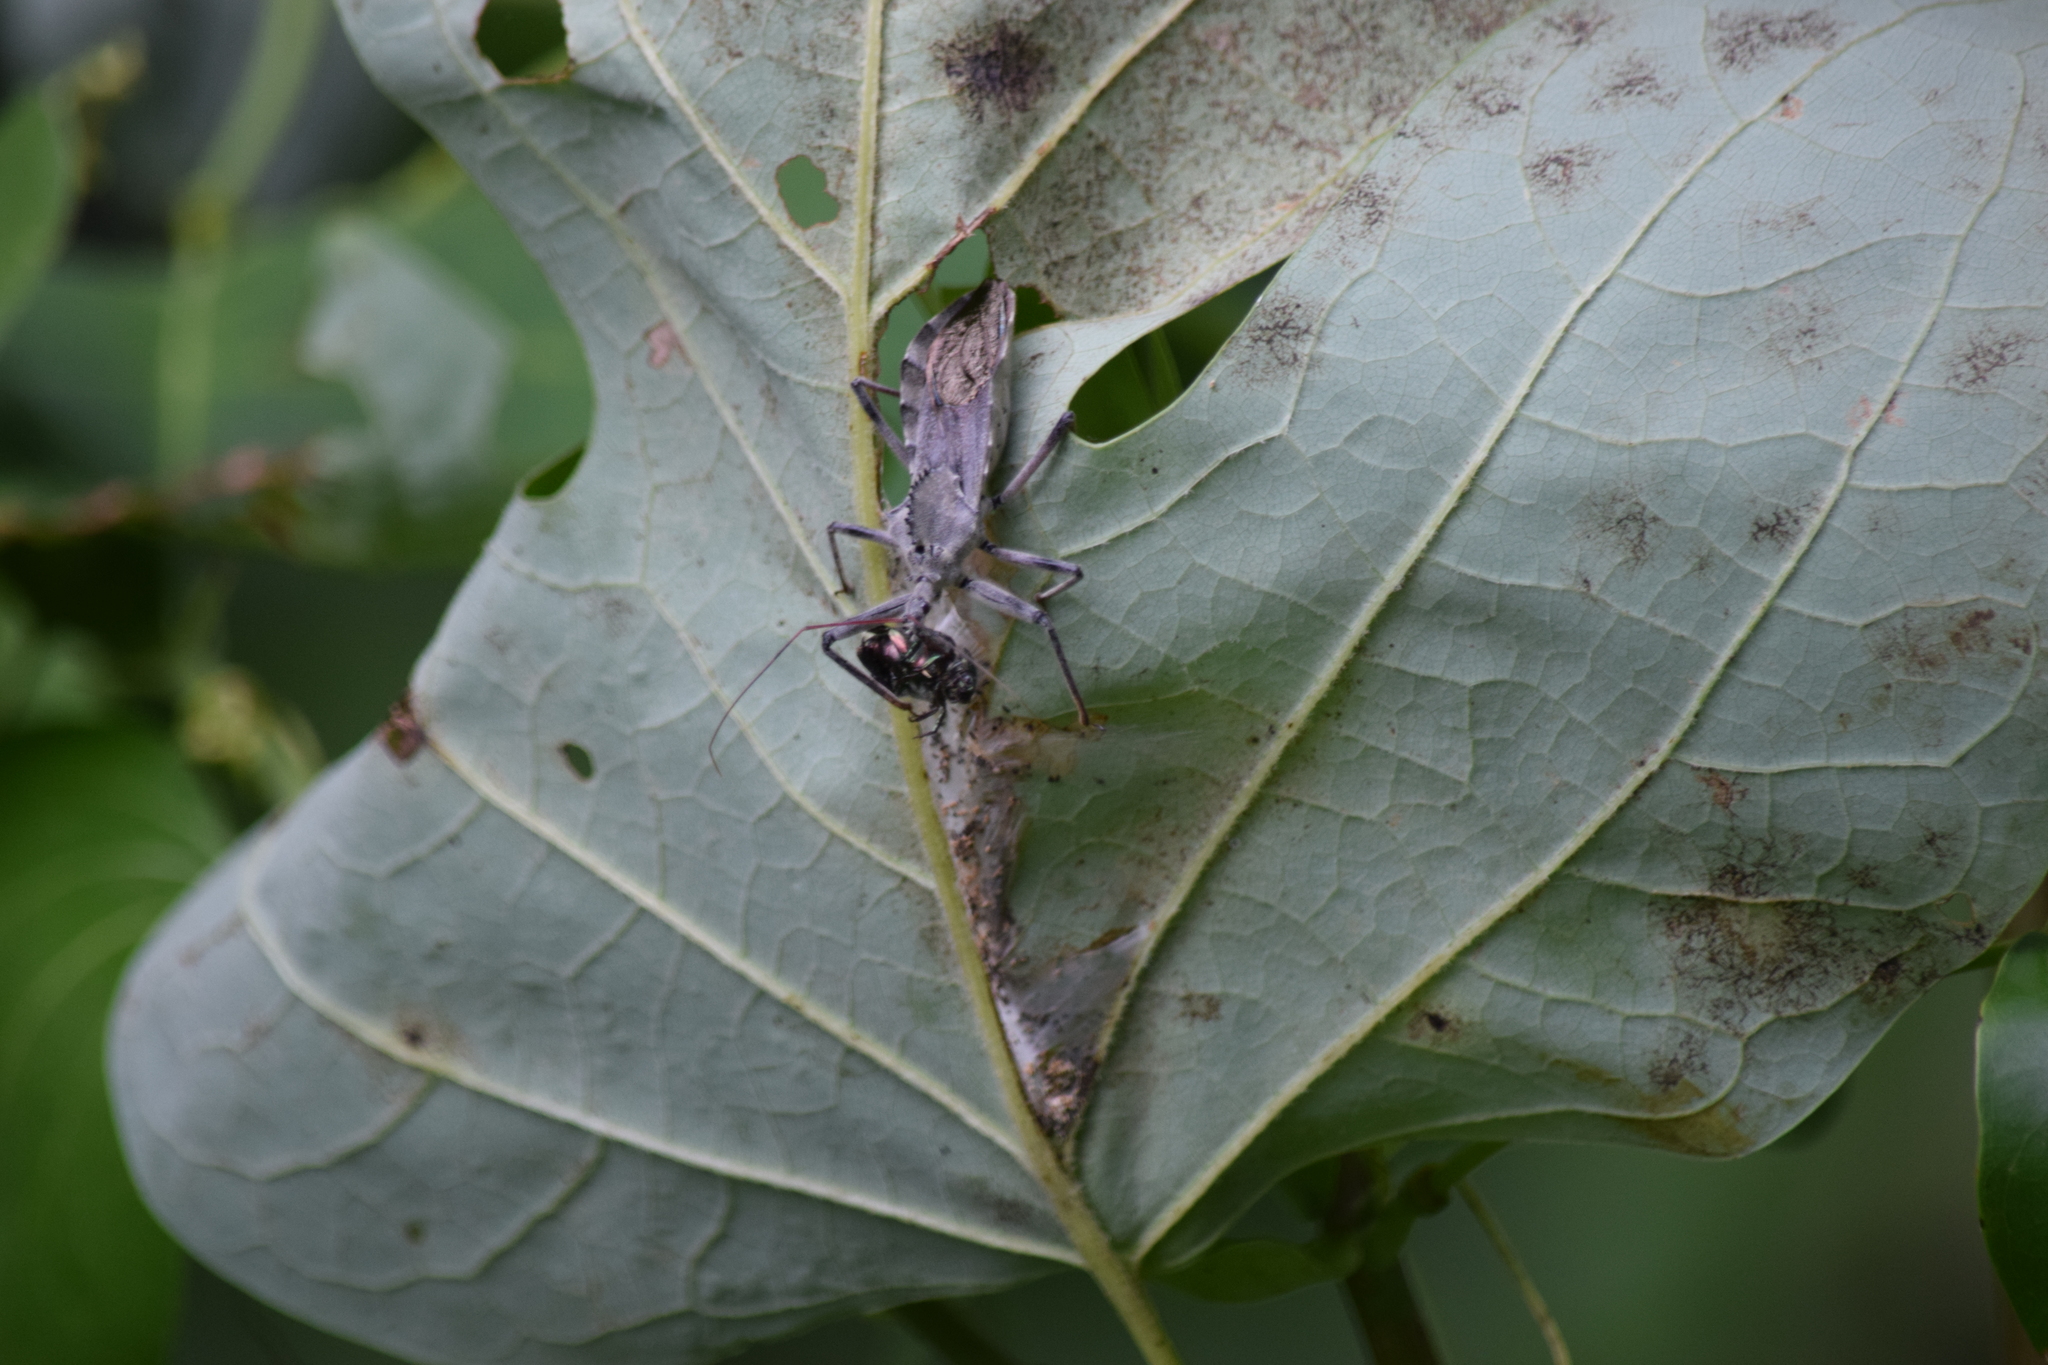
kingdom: Animalia
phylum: Arthropoda
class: Insecta
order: Hemiptera
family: Reduviidae
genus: Arilus
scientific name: Arilus cristatus
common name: North american wheel bug
